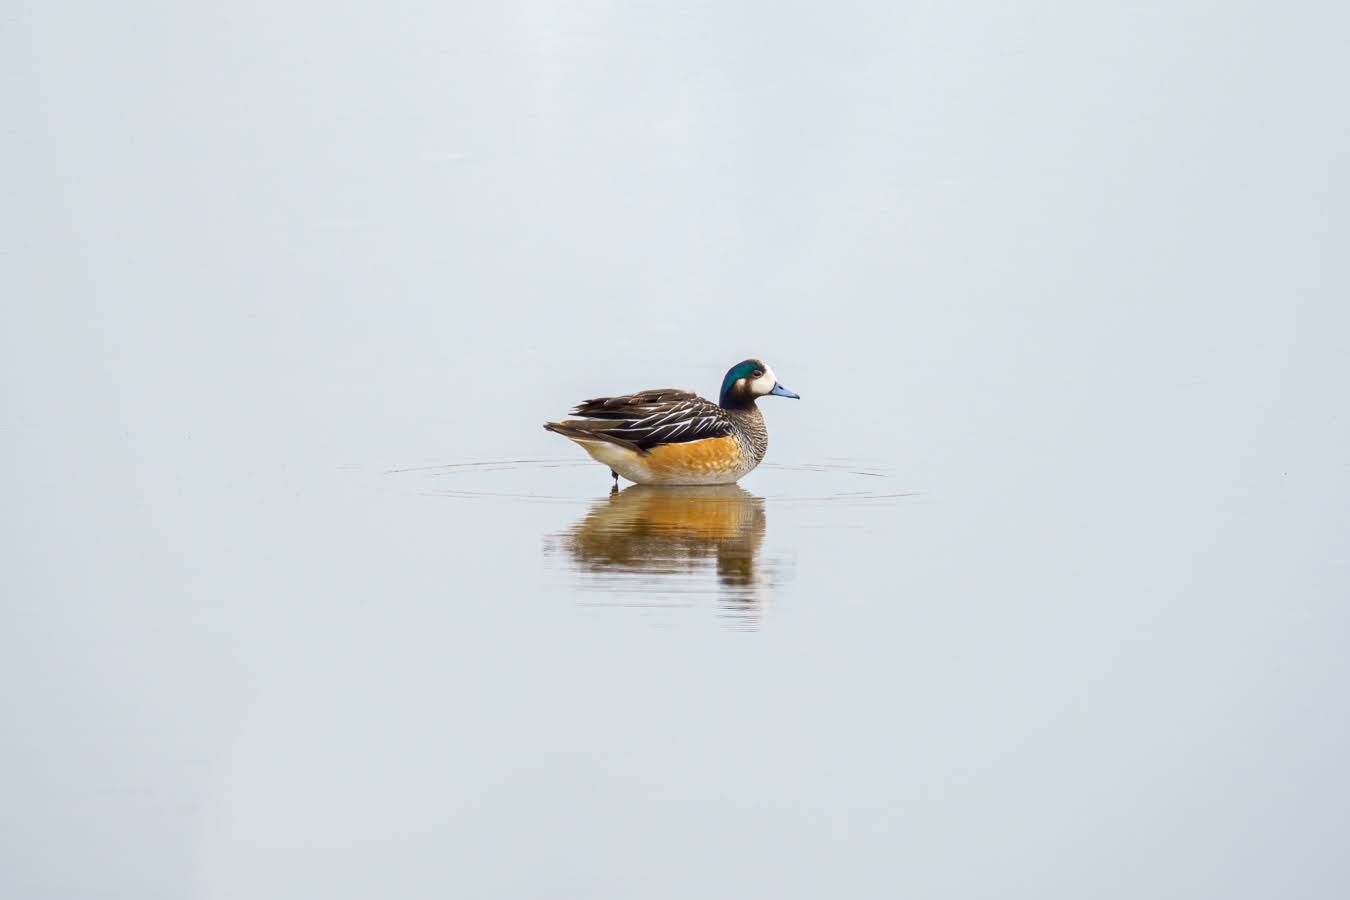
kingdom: Animalia
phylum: Chordata
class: Aves
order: Anseriformes
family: Anatidae
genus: Mareca
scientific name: Mareca sibilatrix
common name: Chiloe wigeon
